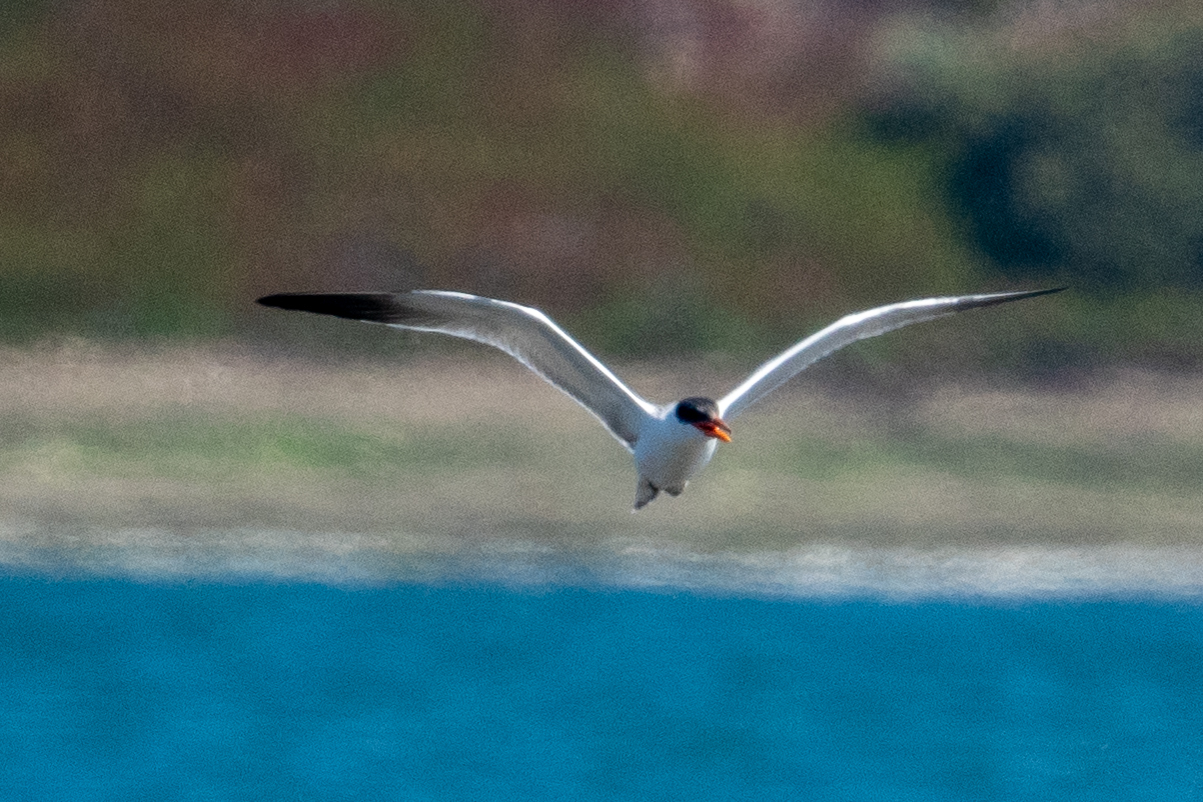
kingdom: Animalia
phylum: Chordata
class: Aves
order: Charadriiformes
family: Laridae
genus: Hydroprogne
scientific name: Hydroprogne caspia
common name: Caspian tern
